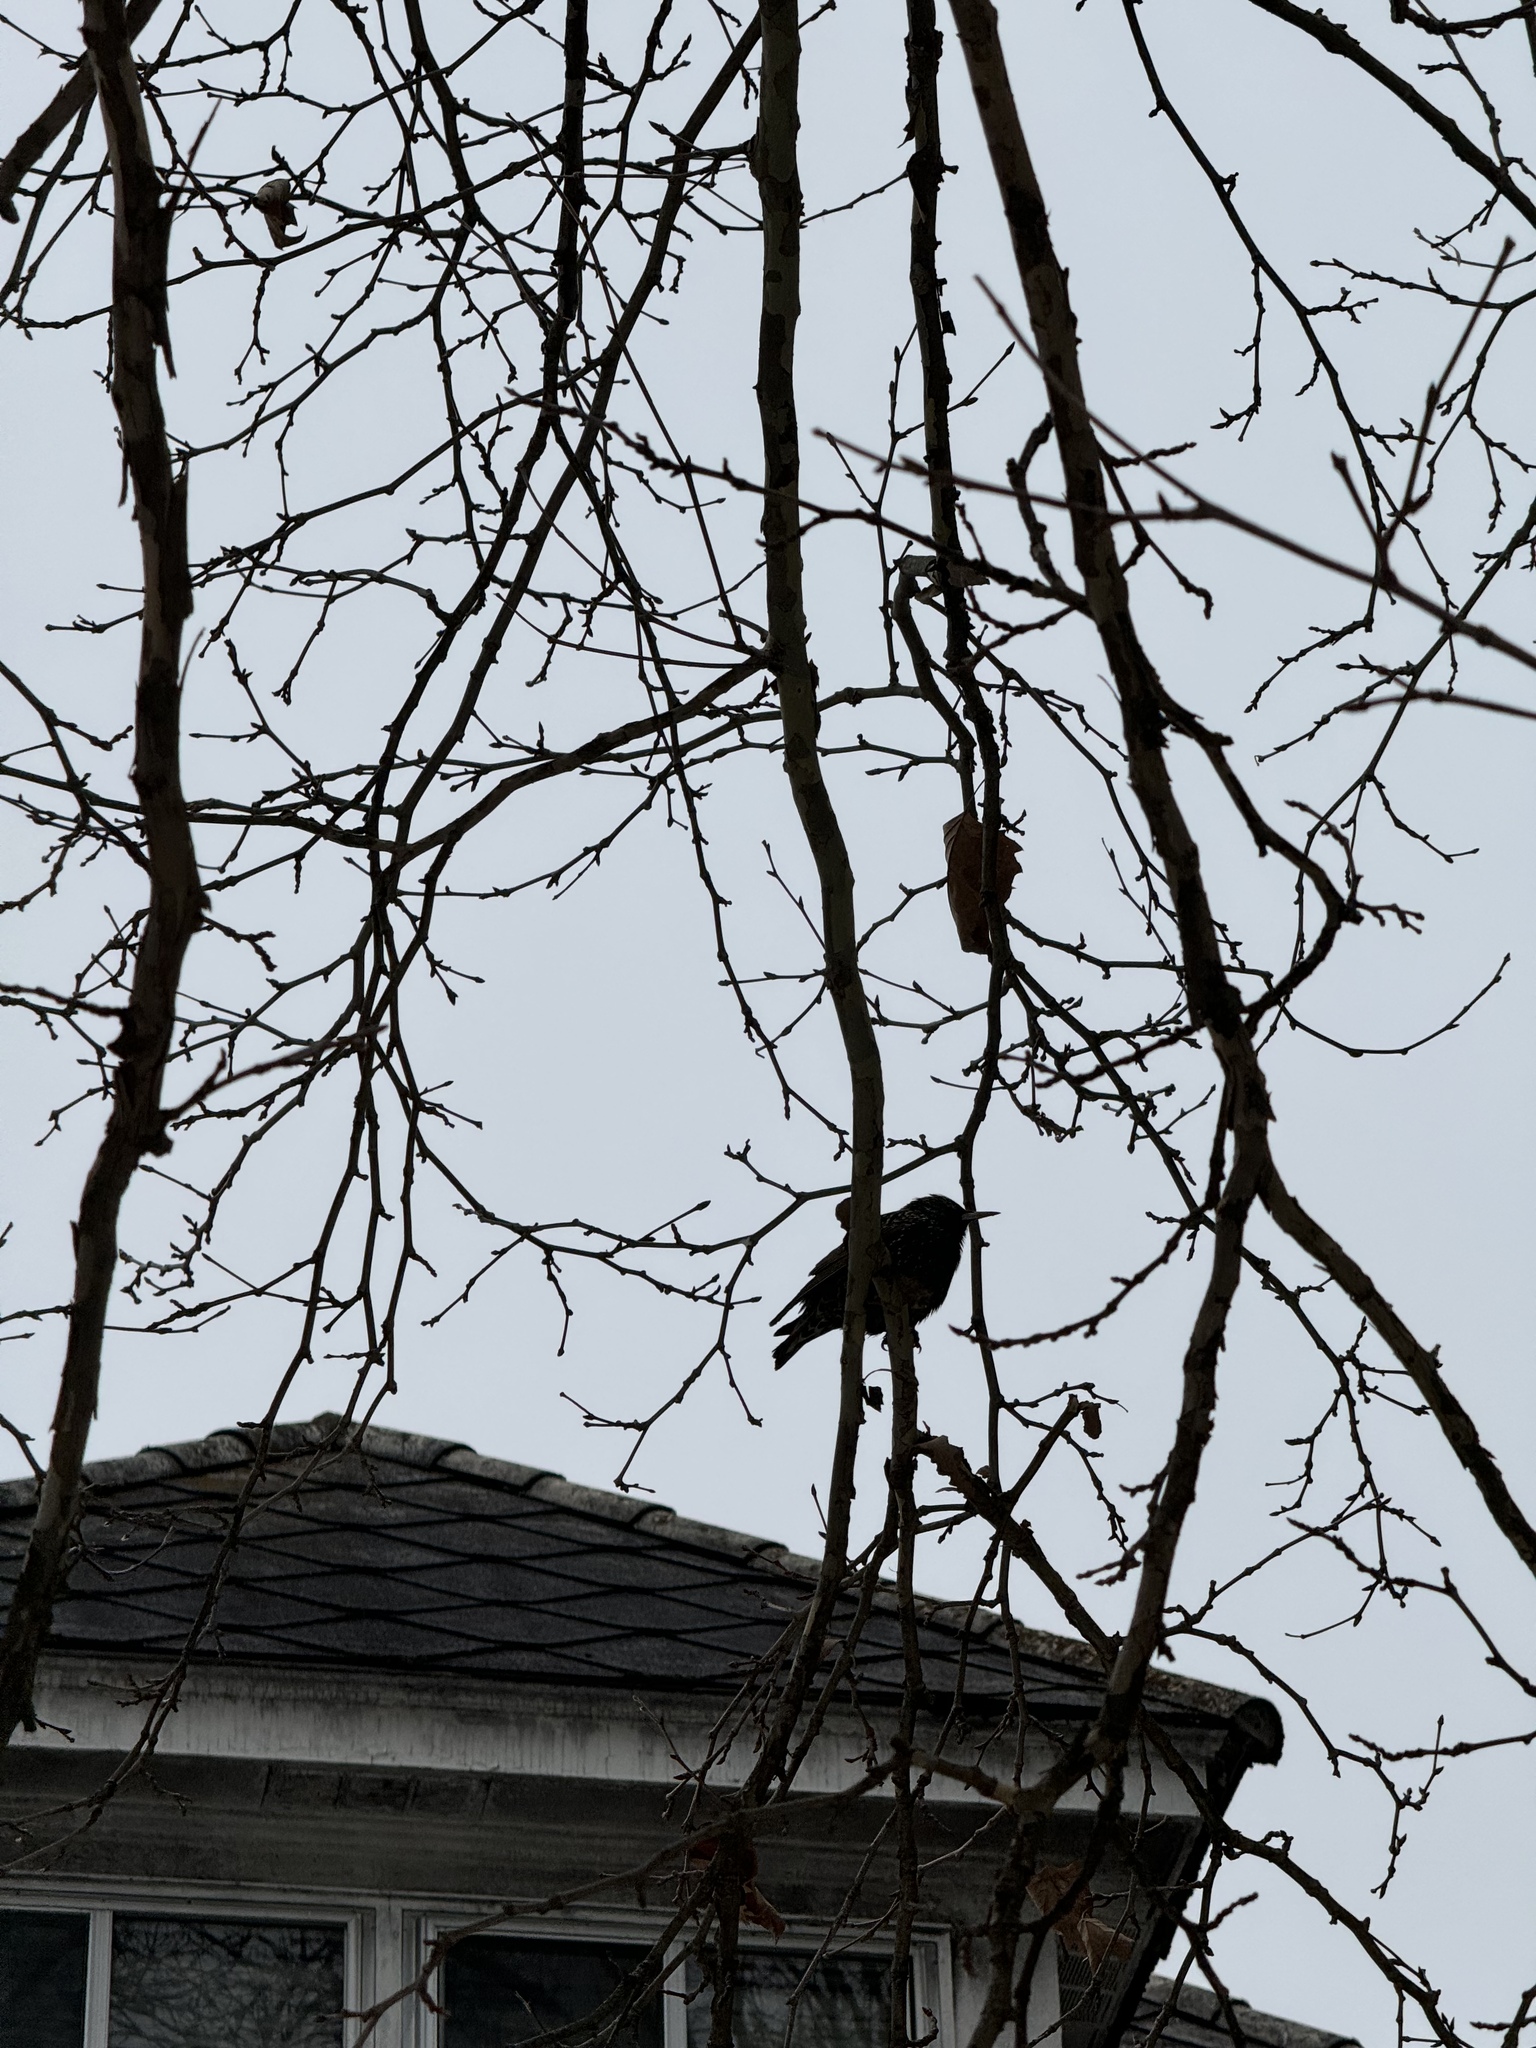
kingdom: Animalia
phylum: Chordata
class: Aves
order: Passeriformes
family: Sturnidae
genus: Sturnus
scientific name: Sturnus vulgaris
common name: Common starling
